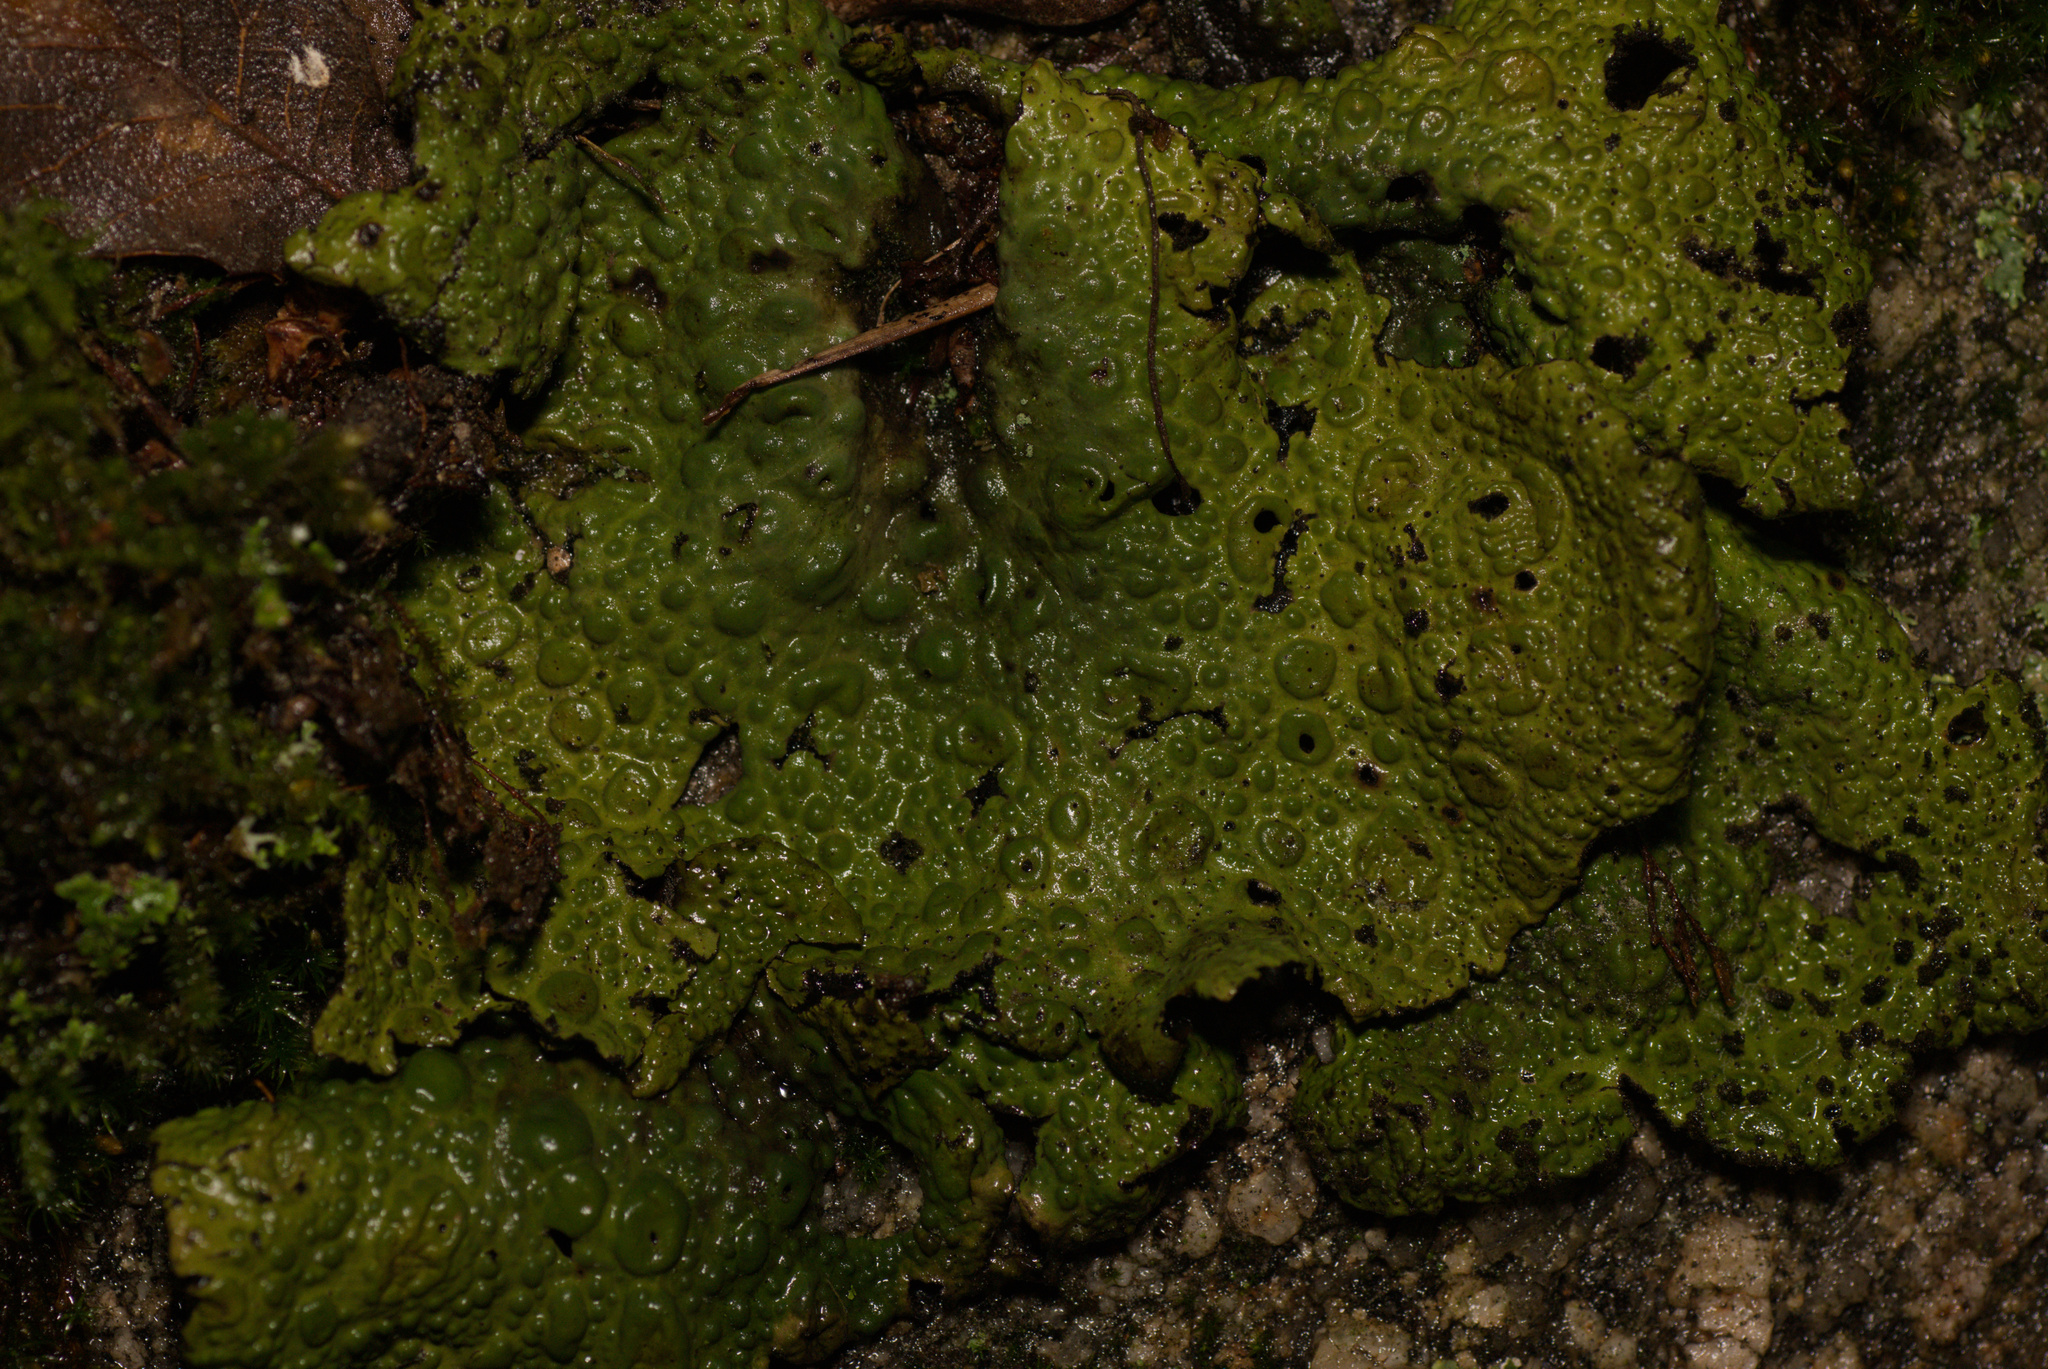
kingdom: Fungi
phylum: Ascomycota
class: Lecanoromycetes
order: Umbilicariales
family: Umbilicariaceae
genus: Lasallia
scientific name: Lasallia pustulata
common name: Blistered toadskin lichen
